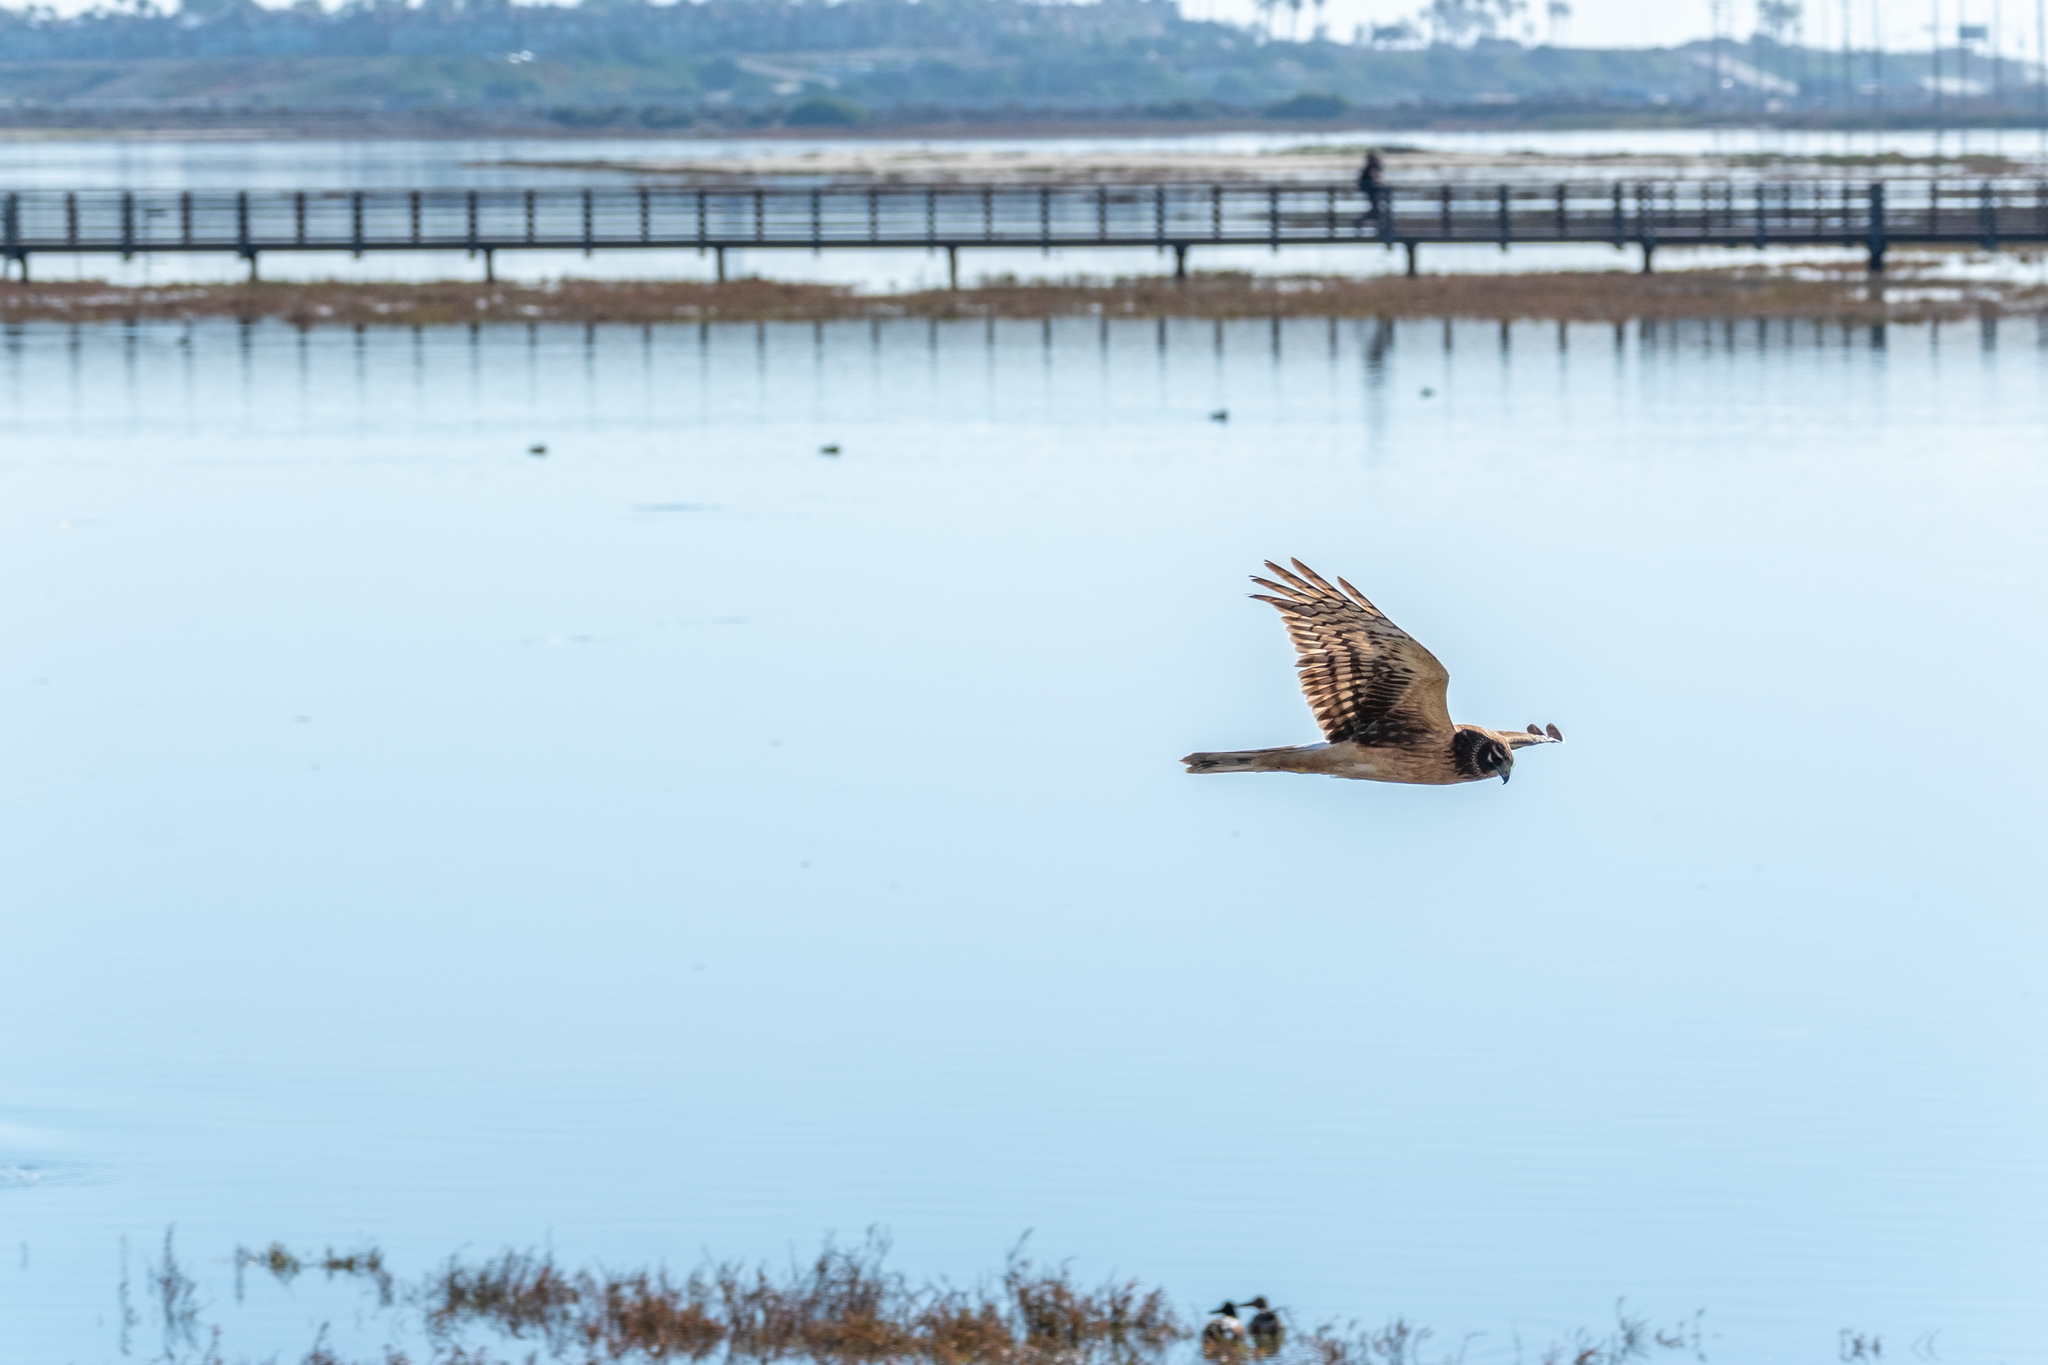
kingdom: Animalia
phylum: Chordata
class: Aves
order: Accipitriformes
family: Accipitridae
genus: Circus
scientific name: Circus cyaneus
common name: Hen harrier
